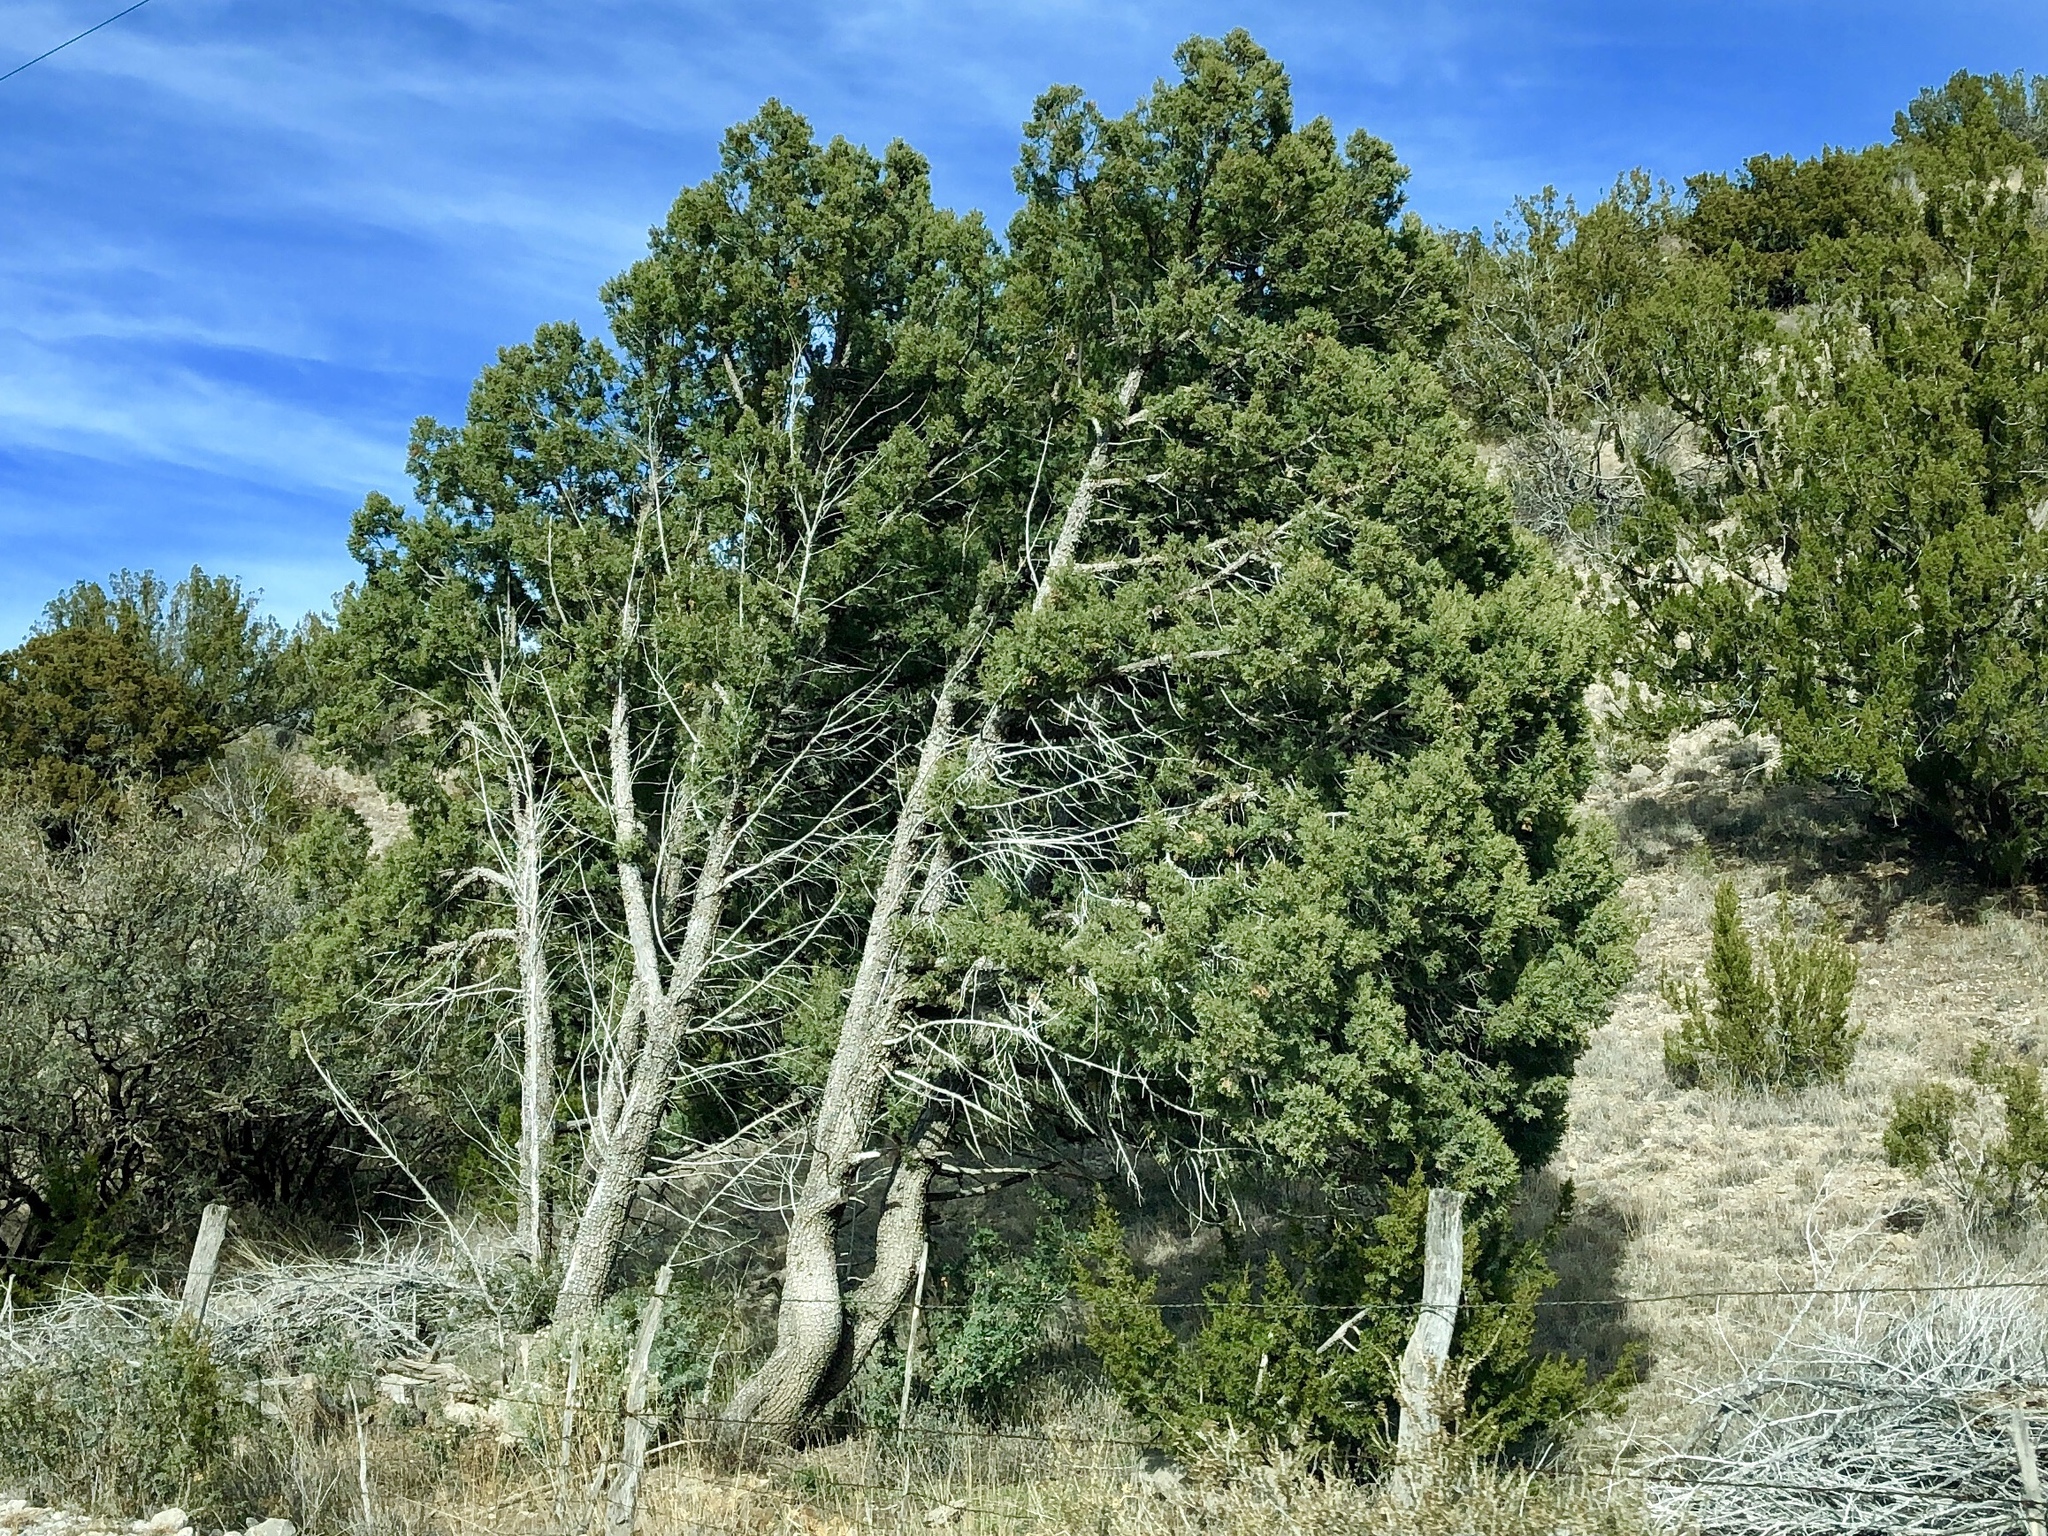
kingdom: Plantae
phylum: Tracheophyta
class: Pinopsida
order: Pinales
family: Cupressaceae
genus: Juniperus
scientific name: Juniperus deppeana
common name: Alligator juniper
